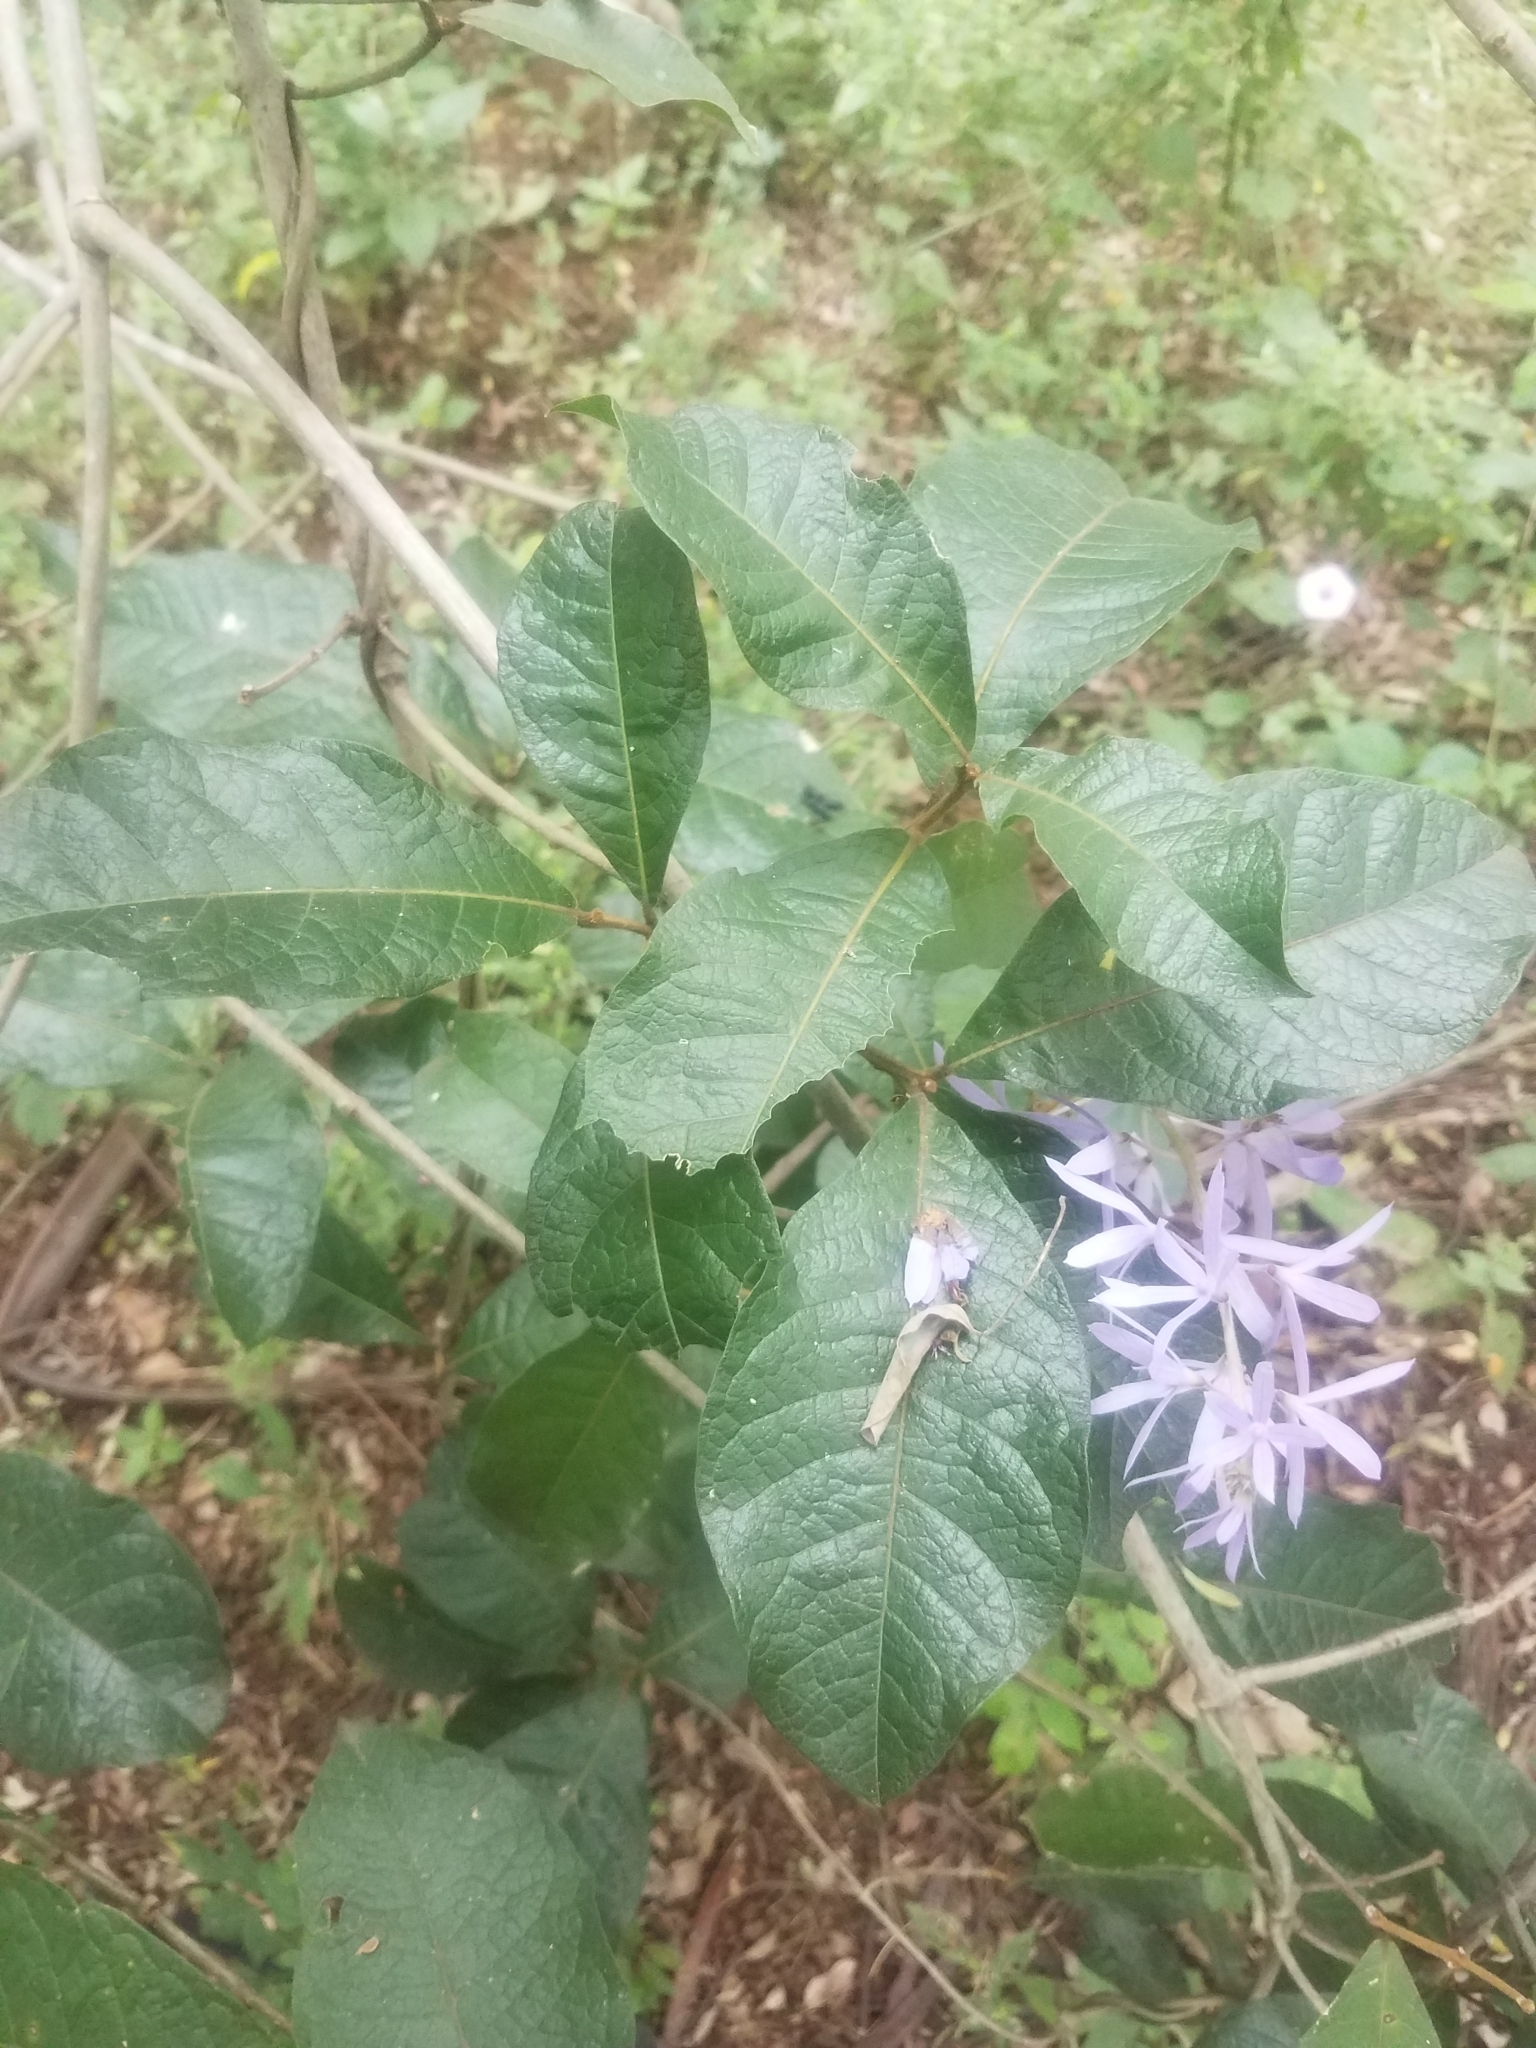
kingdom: Plantae
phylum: Tracheophyta
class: Magnoliopsida
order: Lamiales
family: Verbenaceae
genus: Petrea
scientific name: Petrea volubilis
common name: Queen's-wreath
